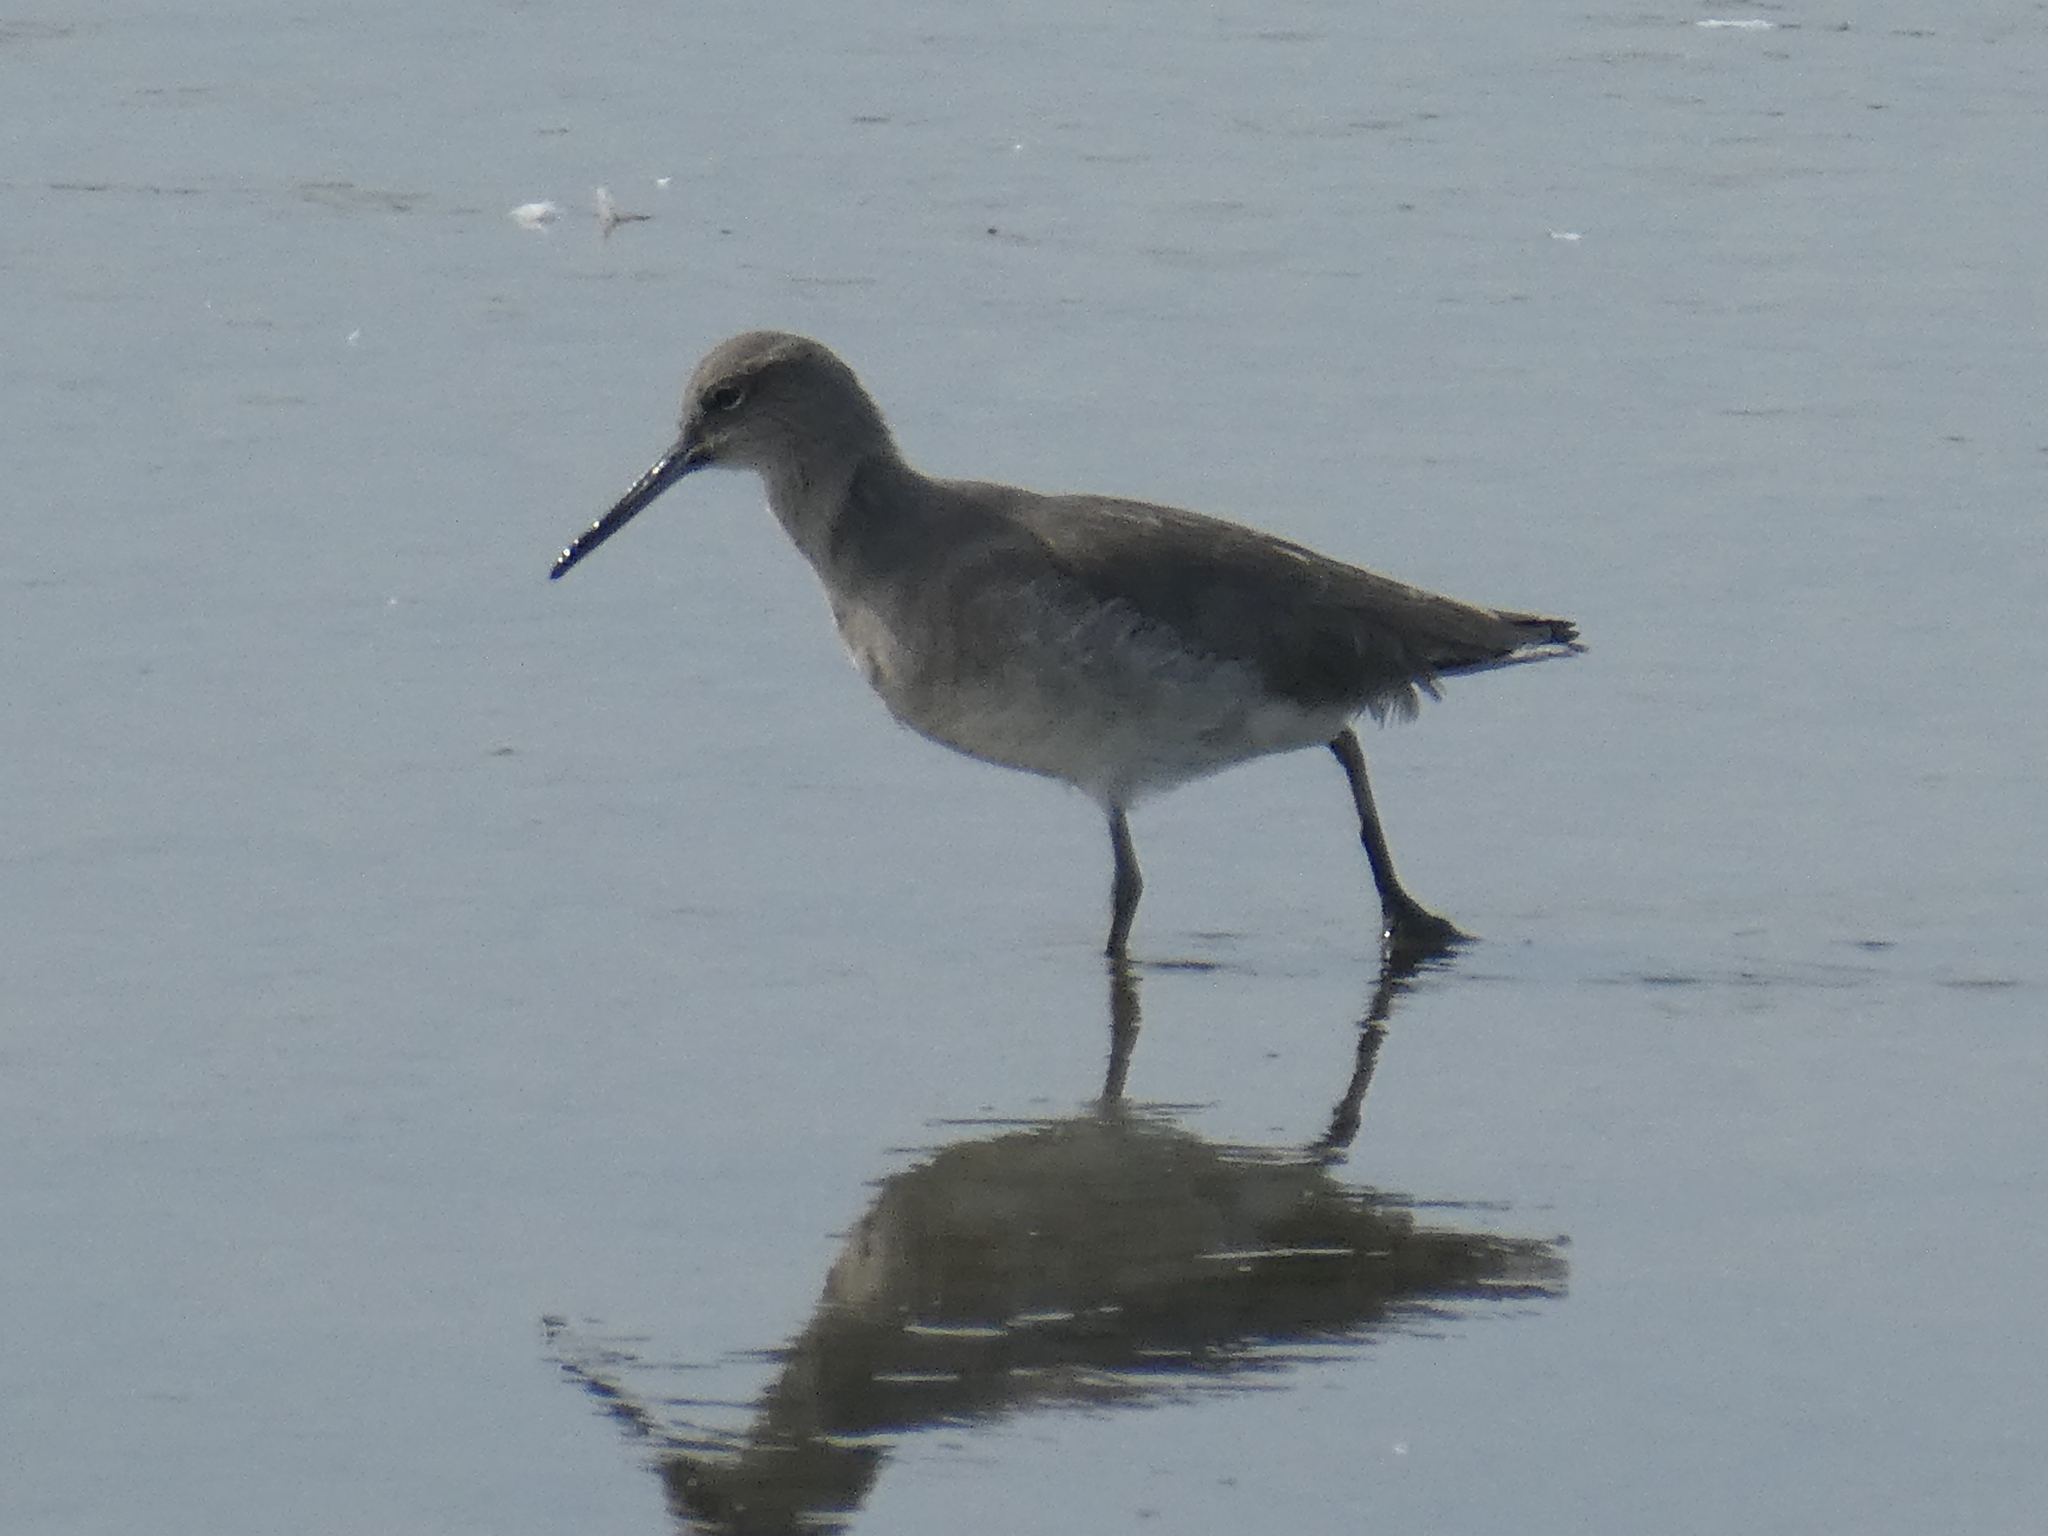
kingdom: Animalia
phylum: Chordata
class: Aves
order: Charadriiformes
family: Scolopacidae
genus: Tringa
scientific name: Tringa semipalmata
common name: Willet
